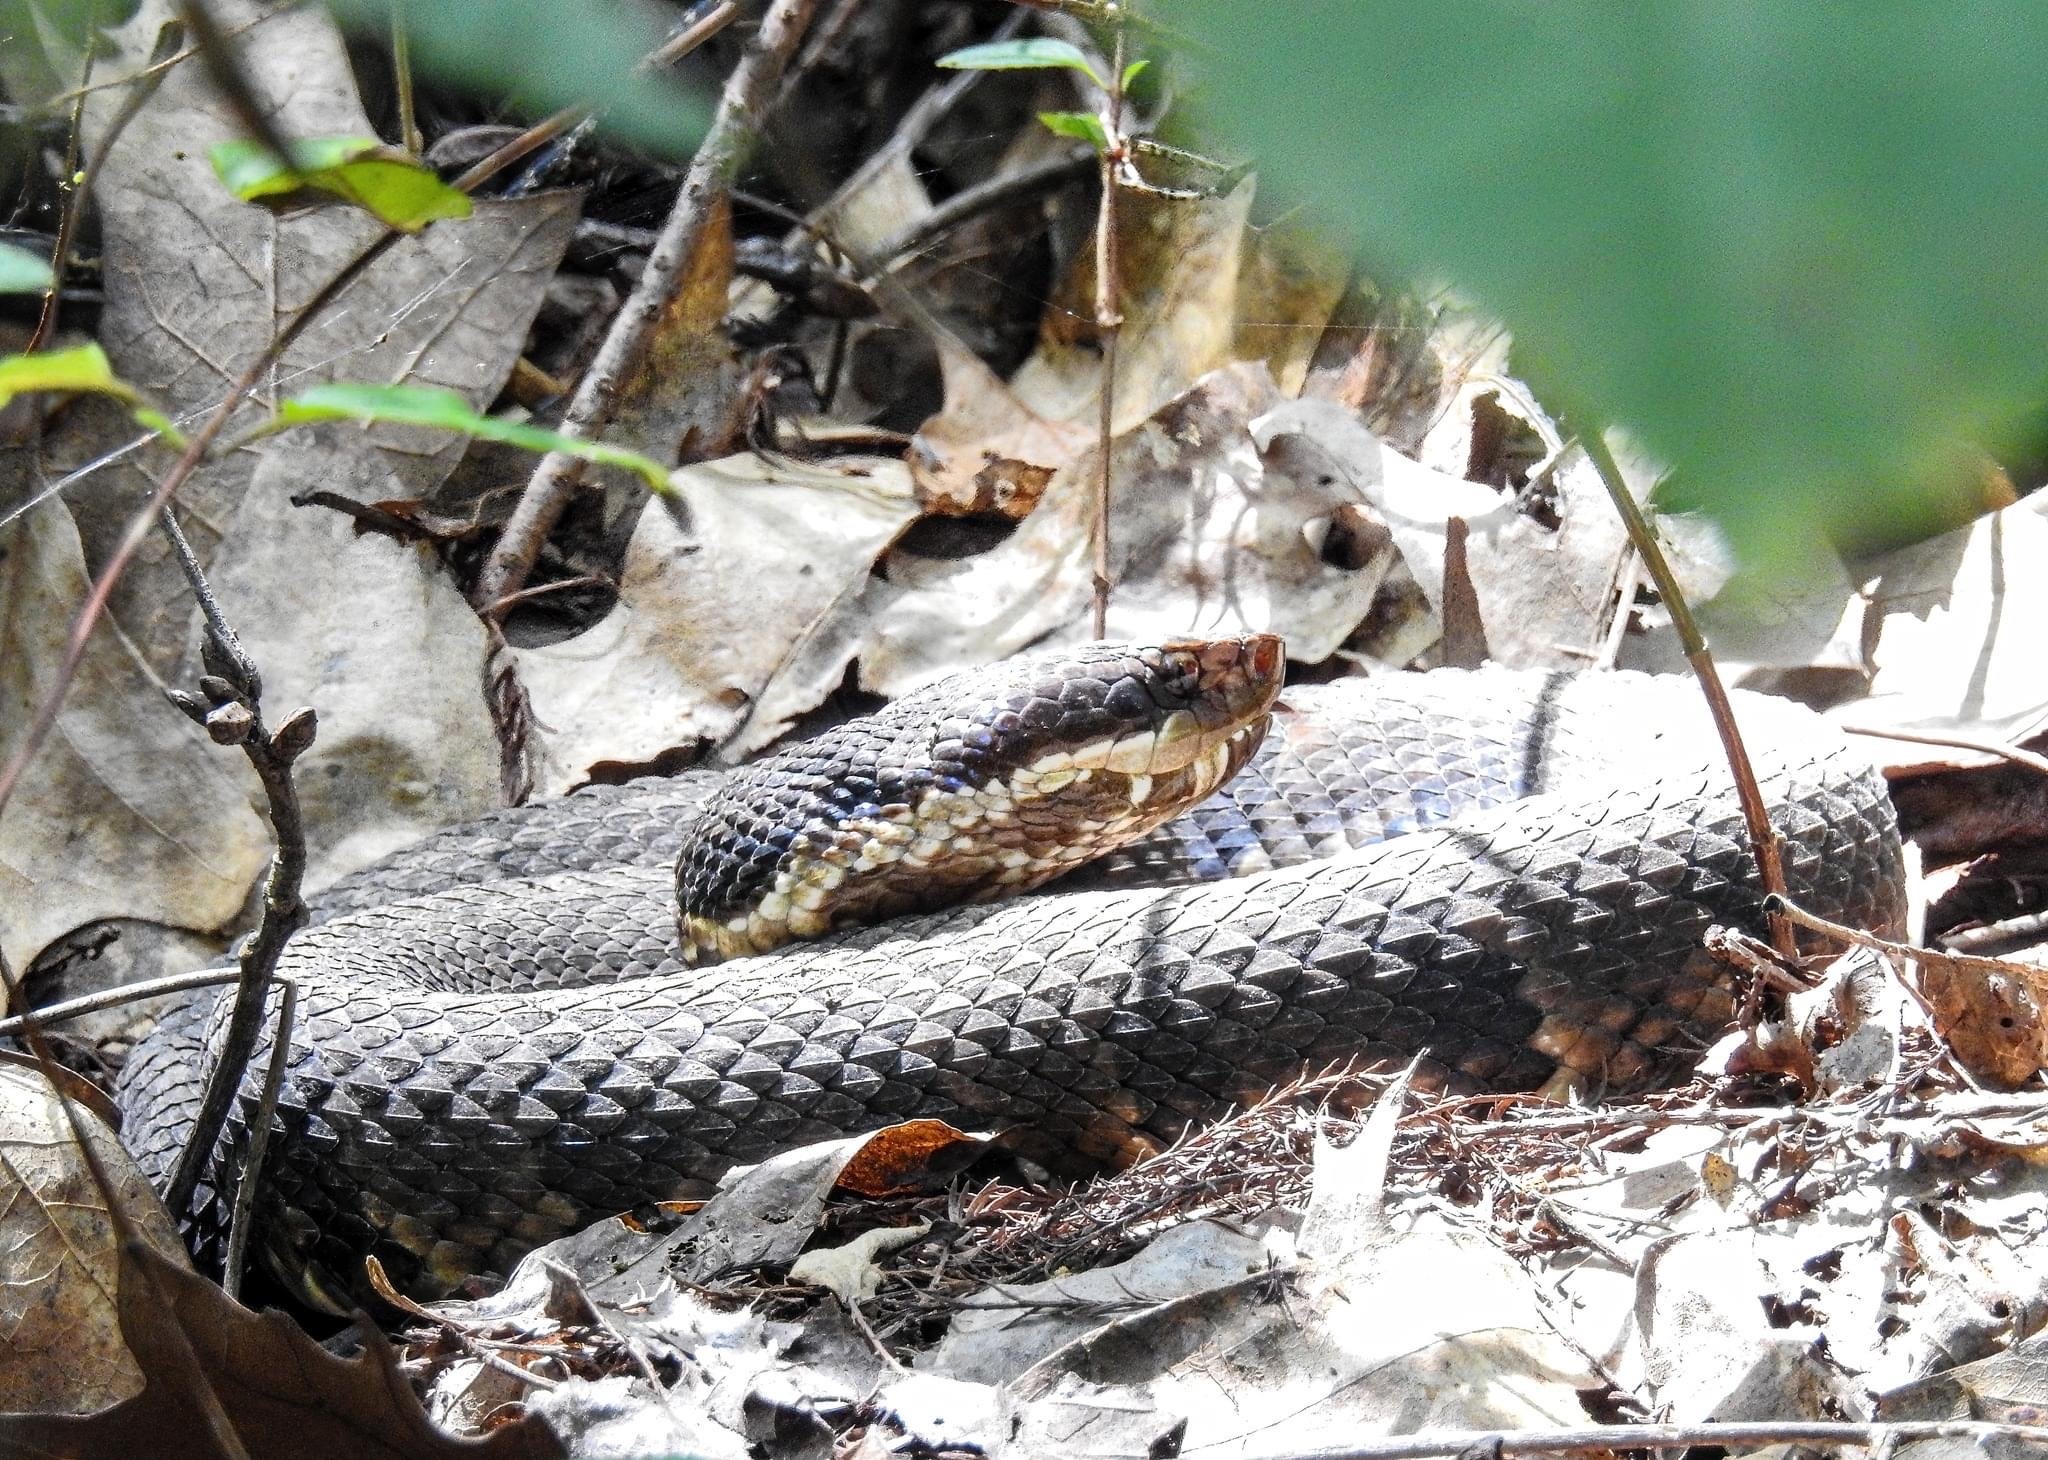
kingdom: Animalia
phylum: Chordata
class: Squamata
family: Viperidae
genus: Agkistrodon
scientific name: Agkistrodon piscivorus
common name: Cottonmouth
